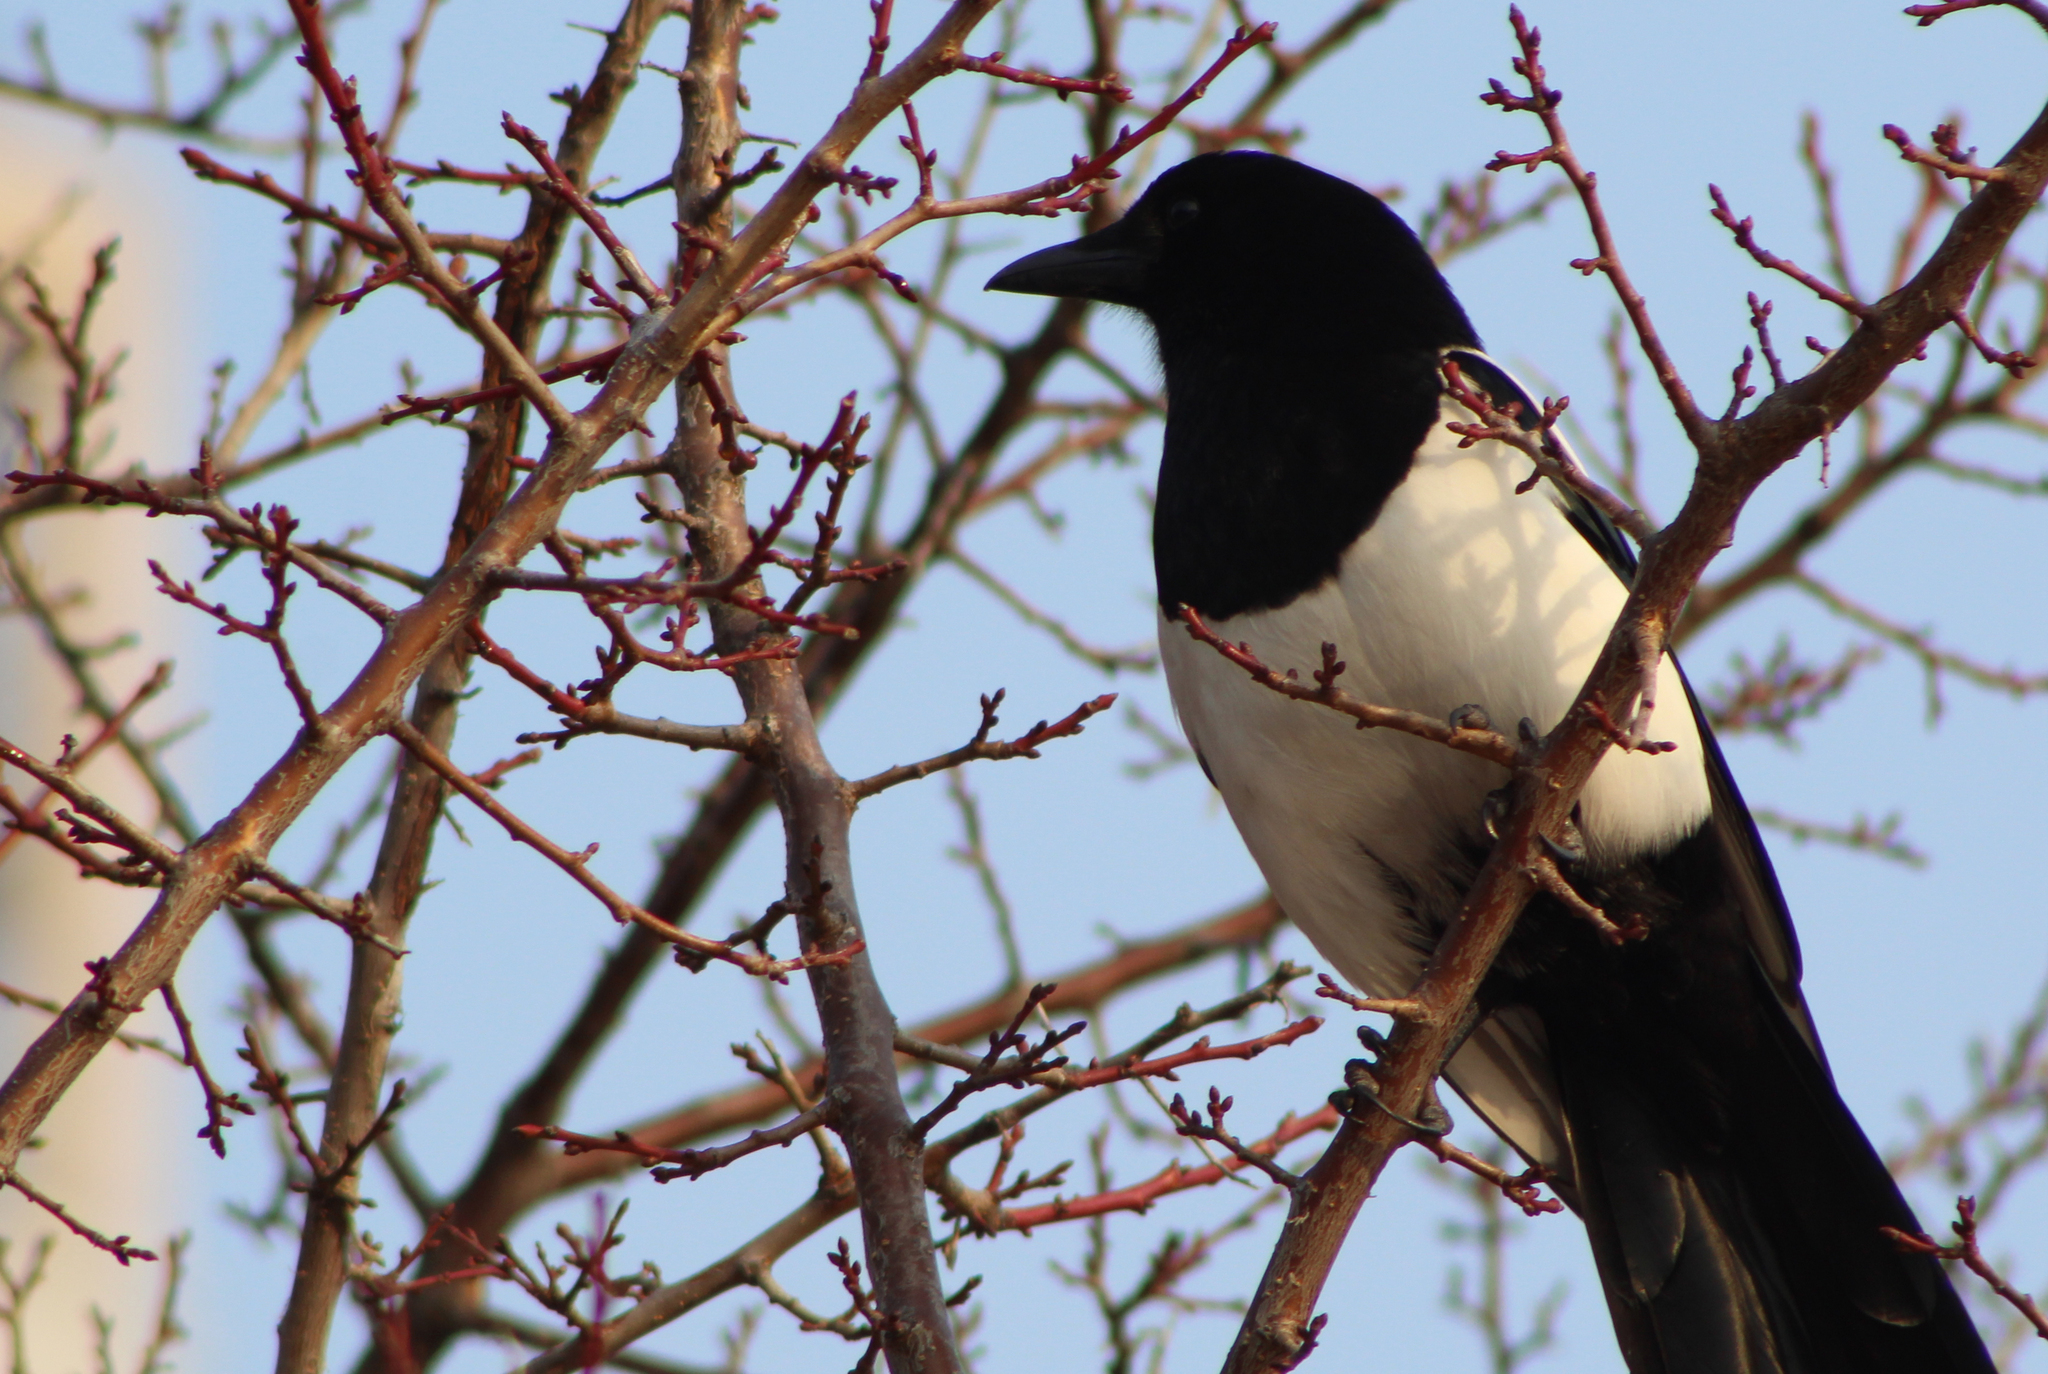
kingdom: Animalia
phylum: Chordata
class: Aves
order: Passeriformes
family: Corvidae
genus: Pica
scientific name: Pica serica
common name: Oriental magpie
